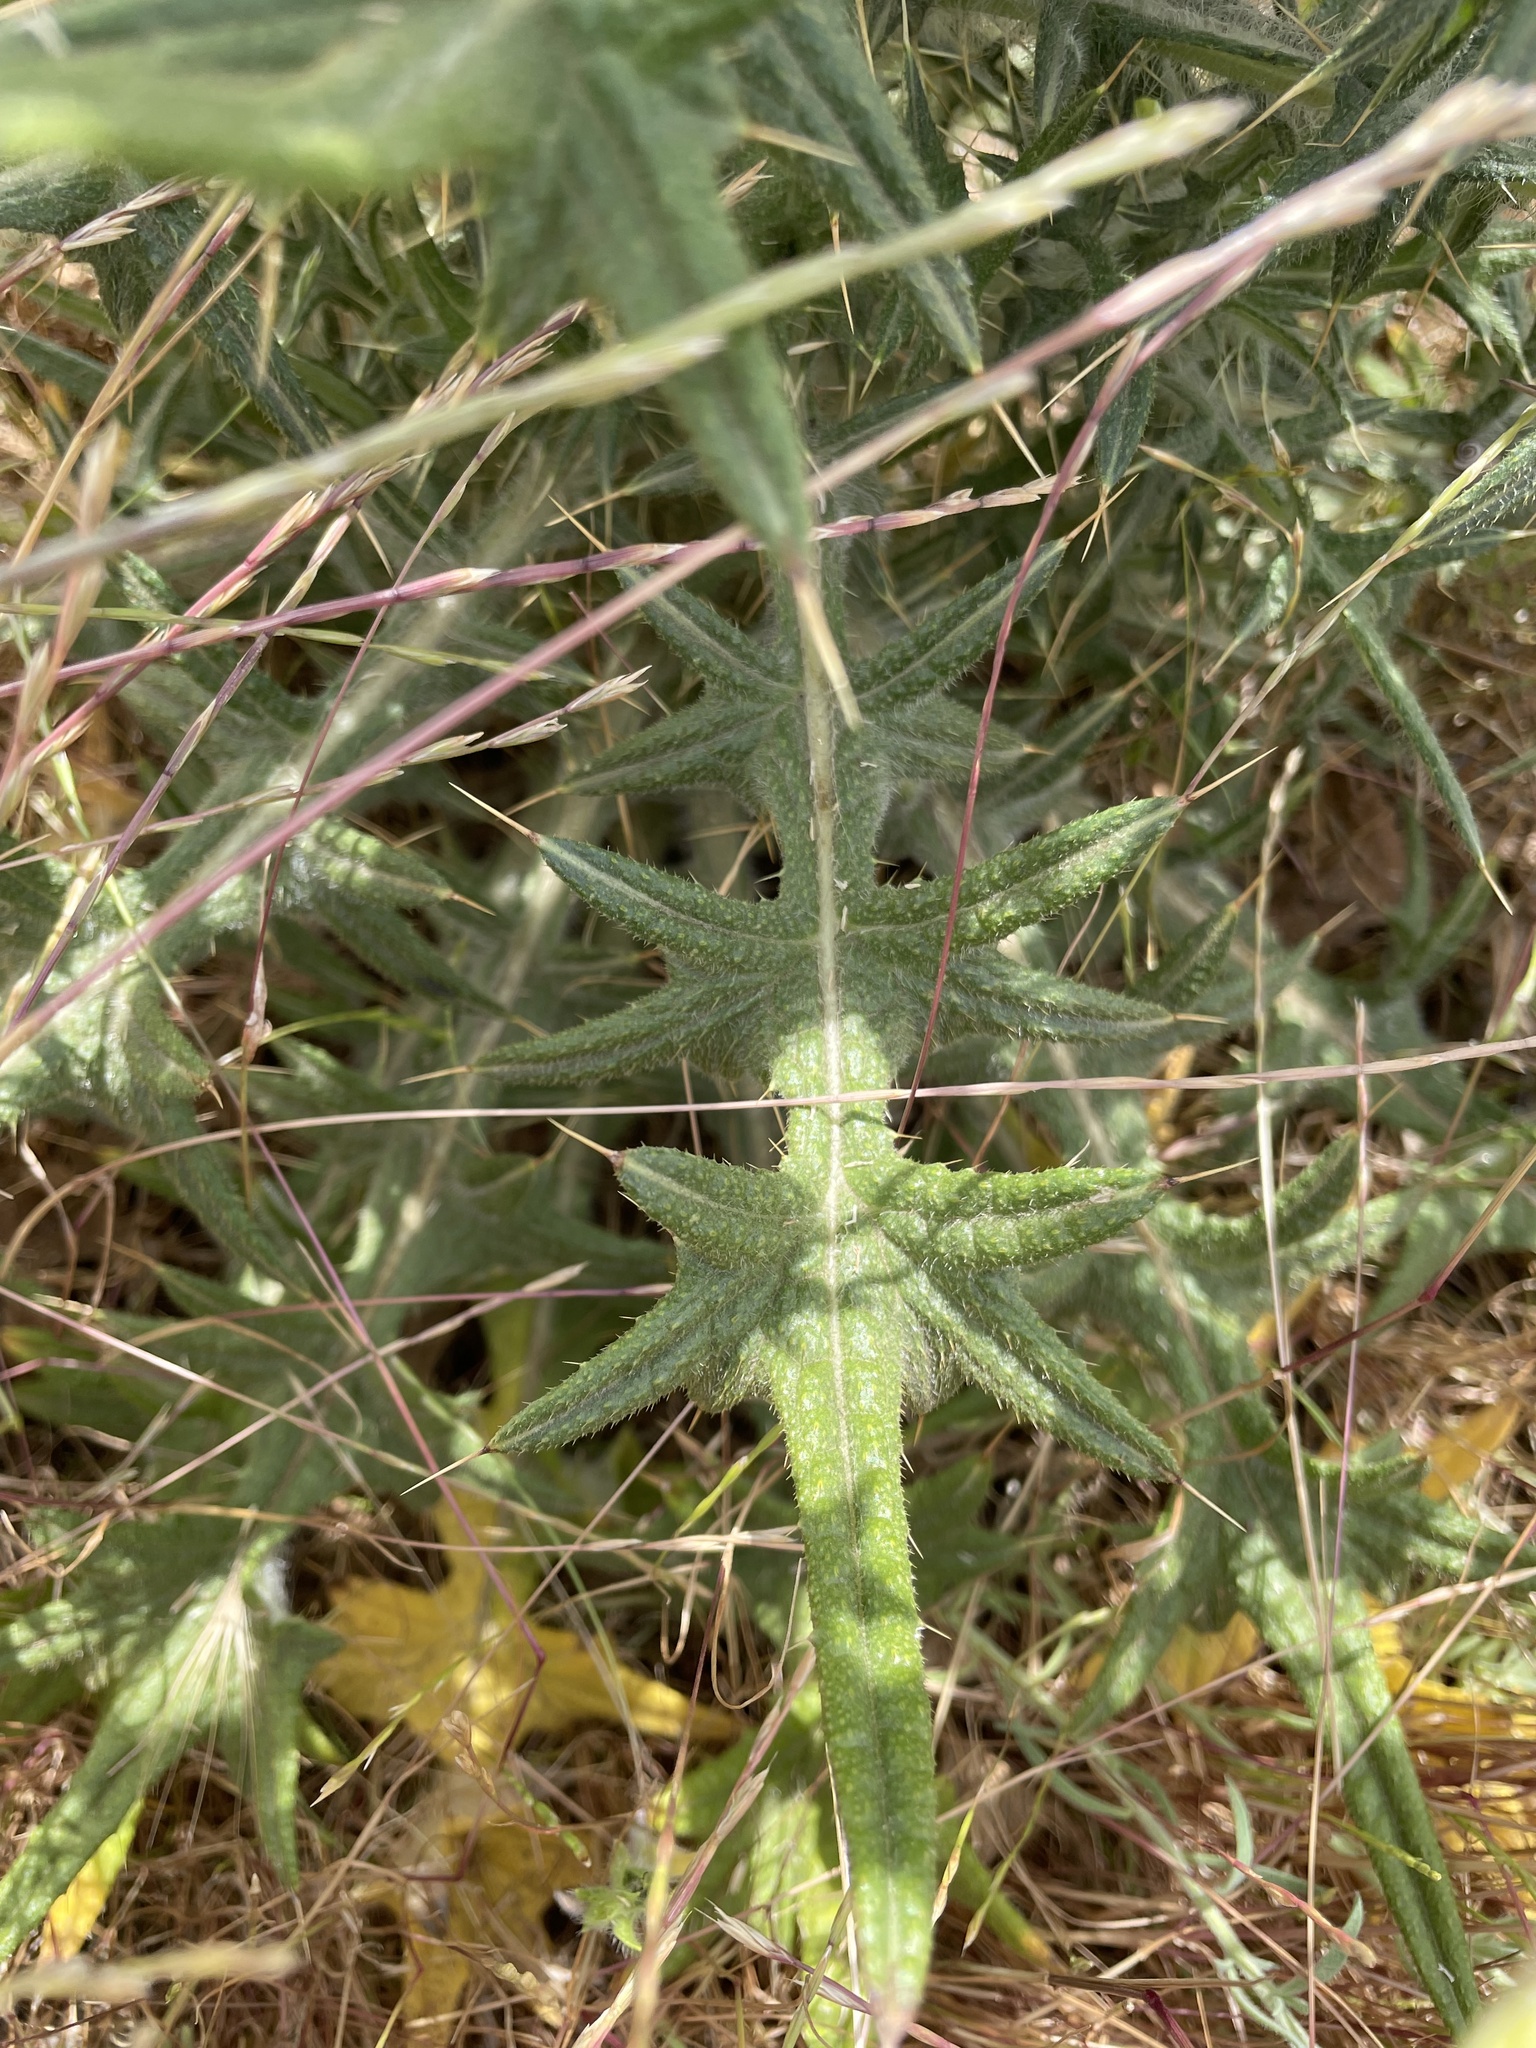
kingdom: Plantae
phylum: Tracheophyta
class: Magnoliopsida
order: Asterales
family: Asteraceae
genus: Cirsium
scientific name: Cirsium vulgare
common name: Bull thistle
